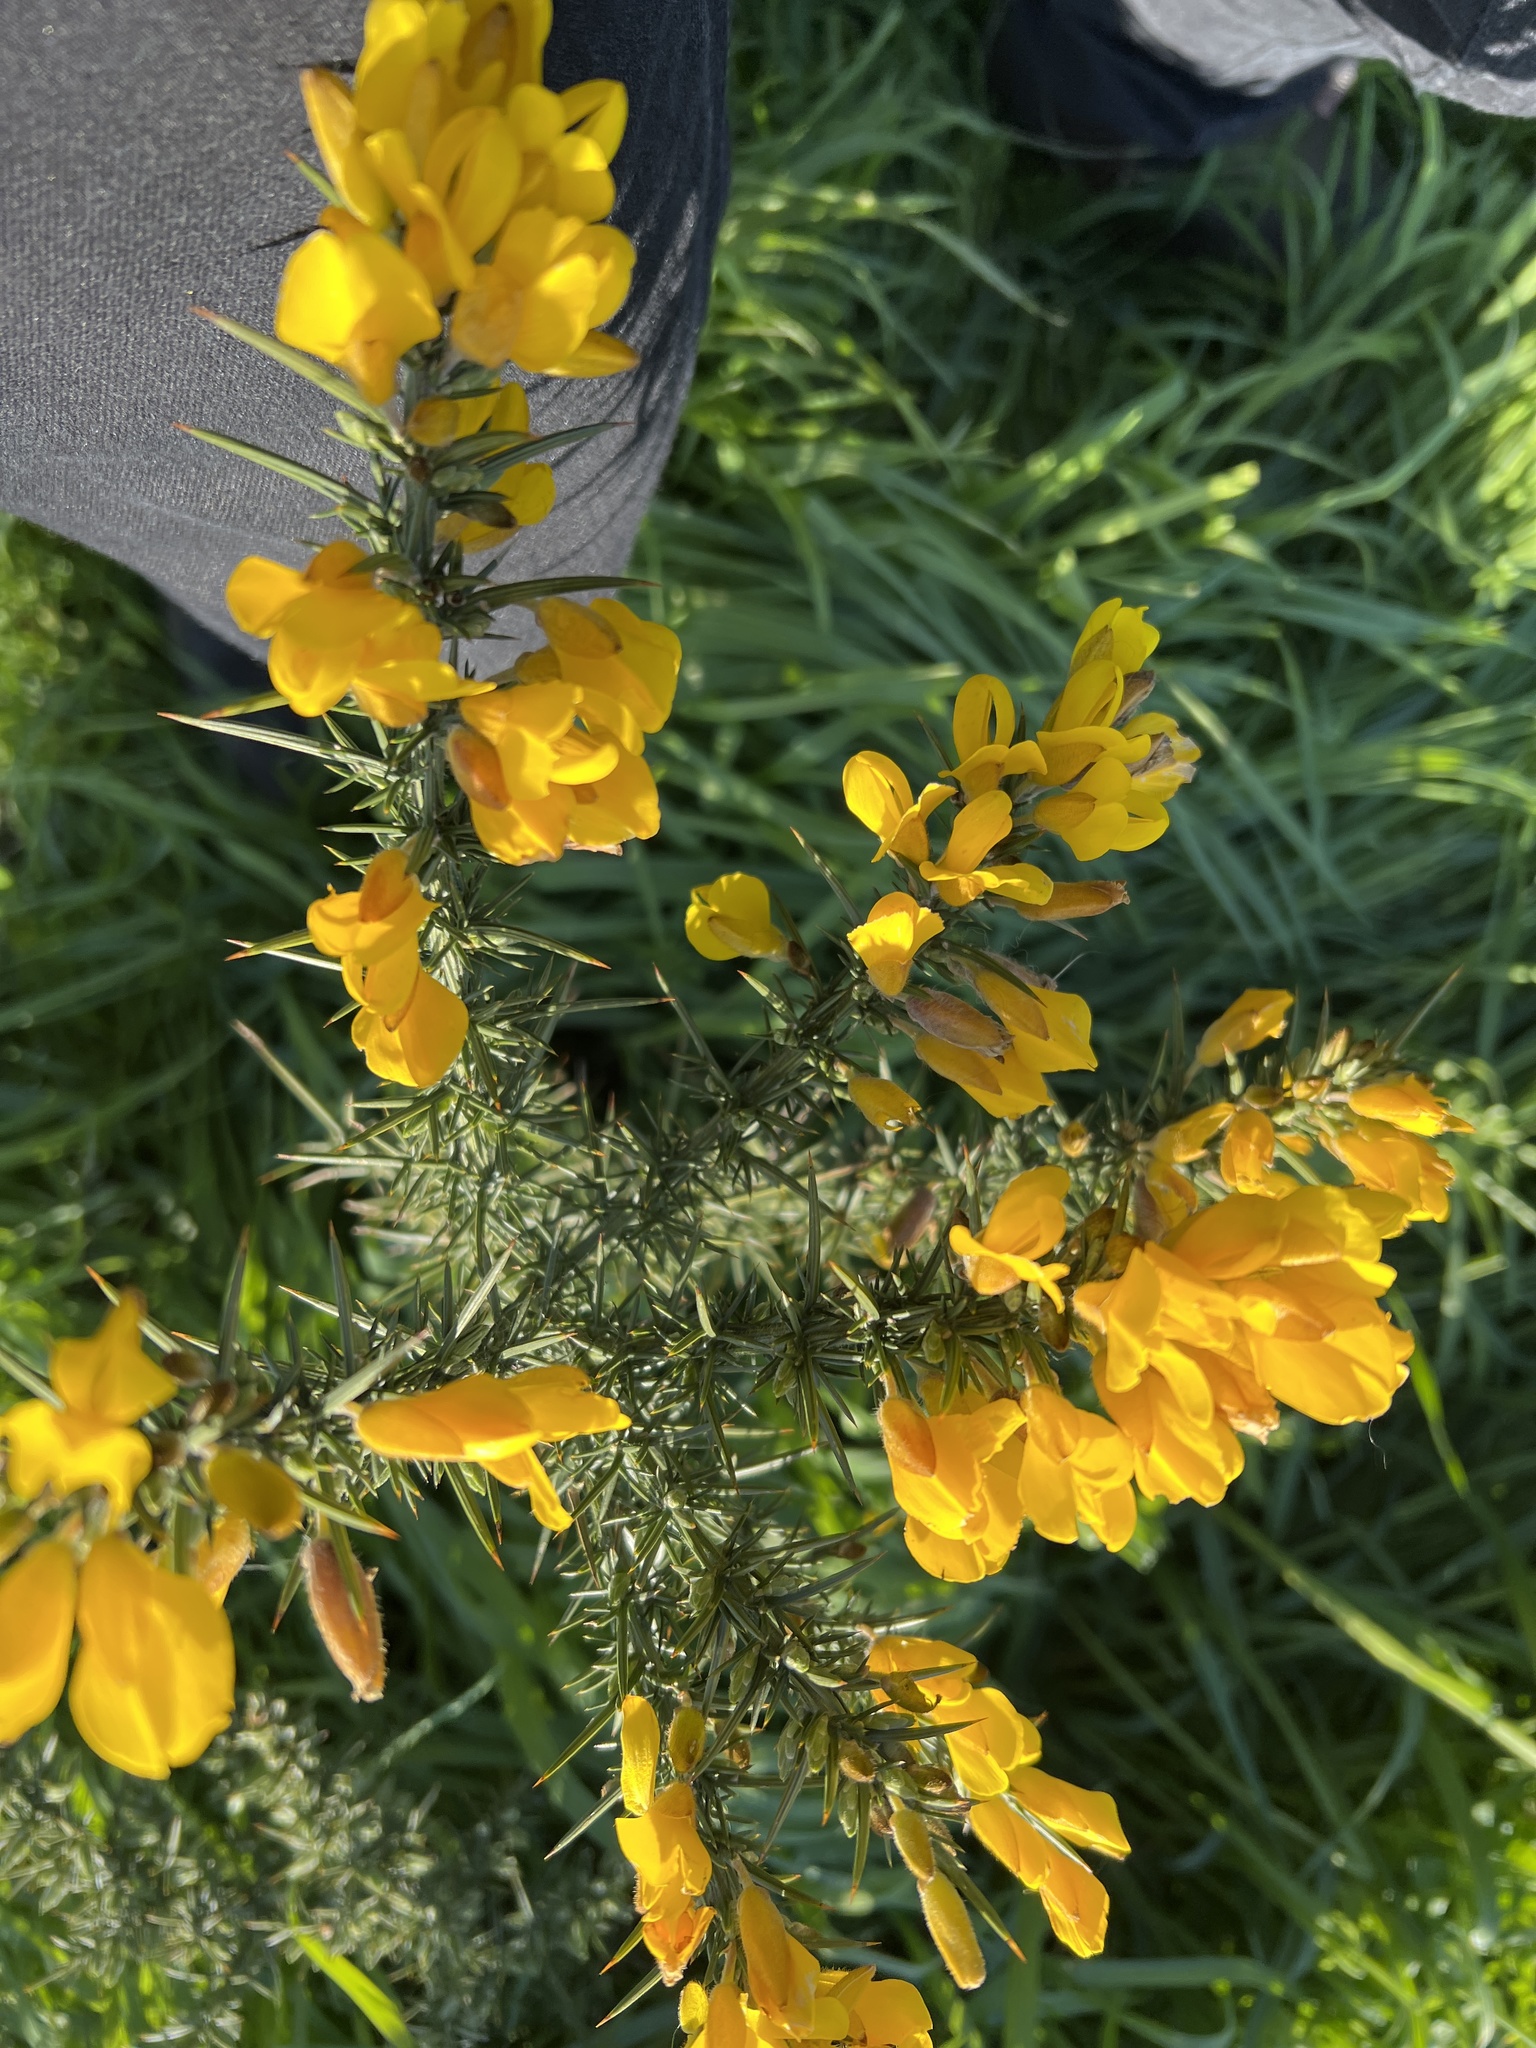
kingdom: Plantae
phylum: Tracheophyta
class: Magnoliopsida
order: Fabales
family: Fabaceae
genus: Ulex
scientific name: Ulex europaeus
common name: Common gorse
